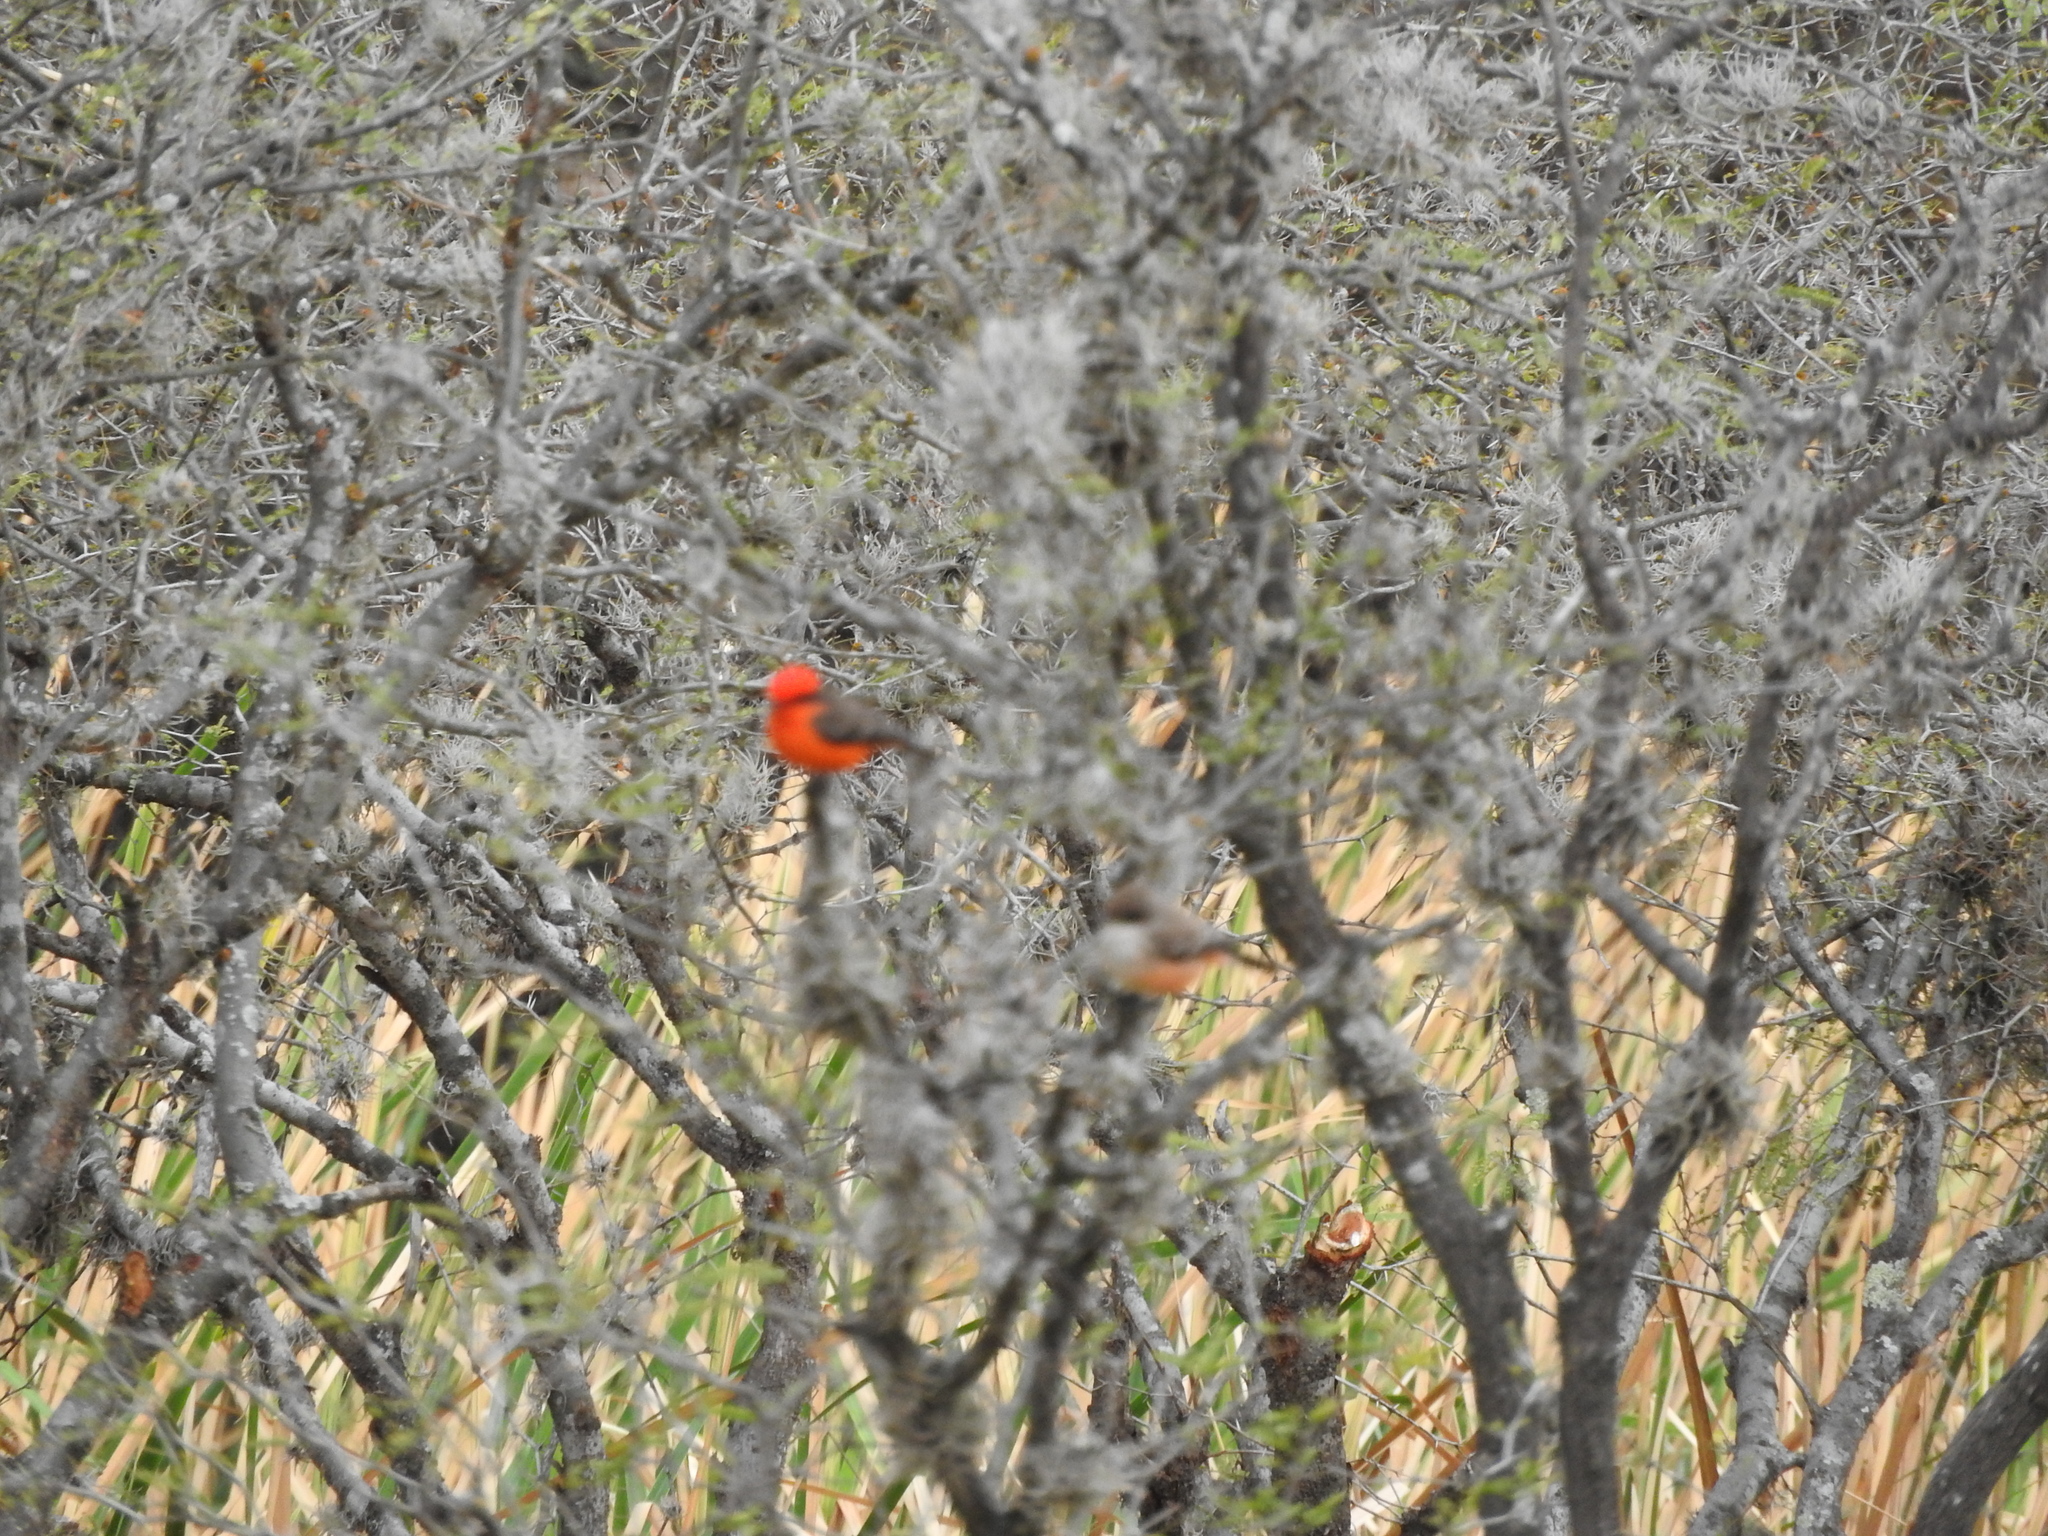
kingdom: Animalia
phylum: Chordata
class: Aves
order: Passeriformes
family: Tyrannidae
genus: Pyrocephalus
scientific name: Pyrocephalus rubinus
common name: Vermilion flycatcher
